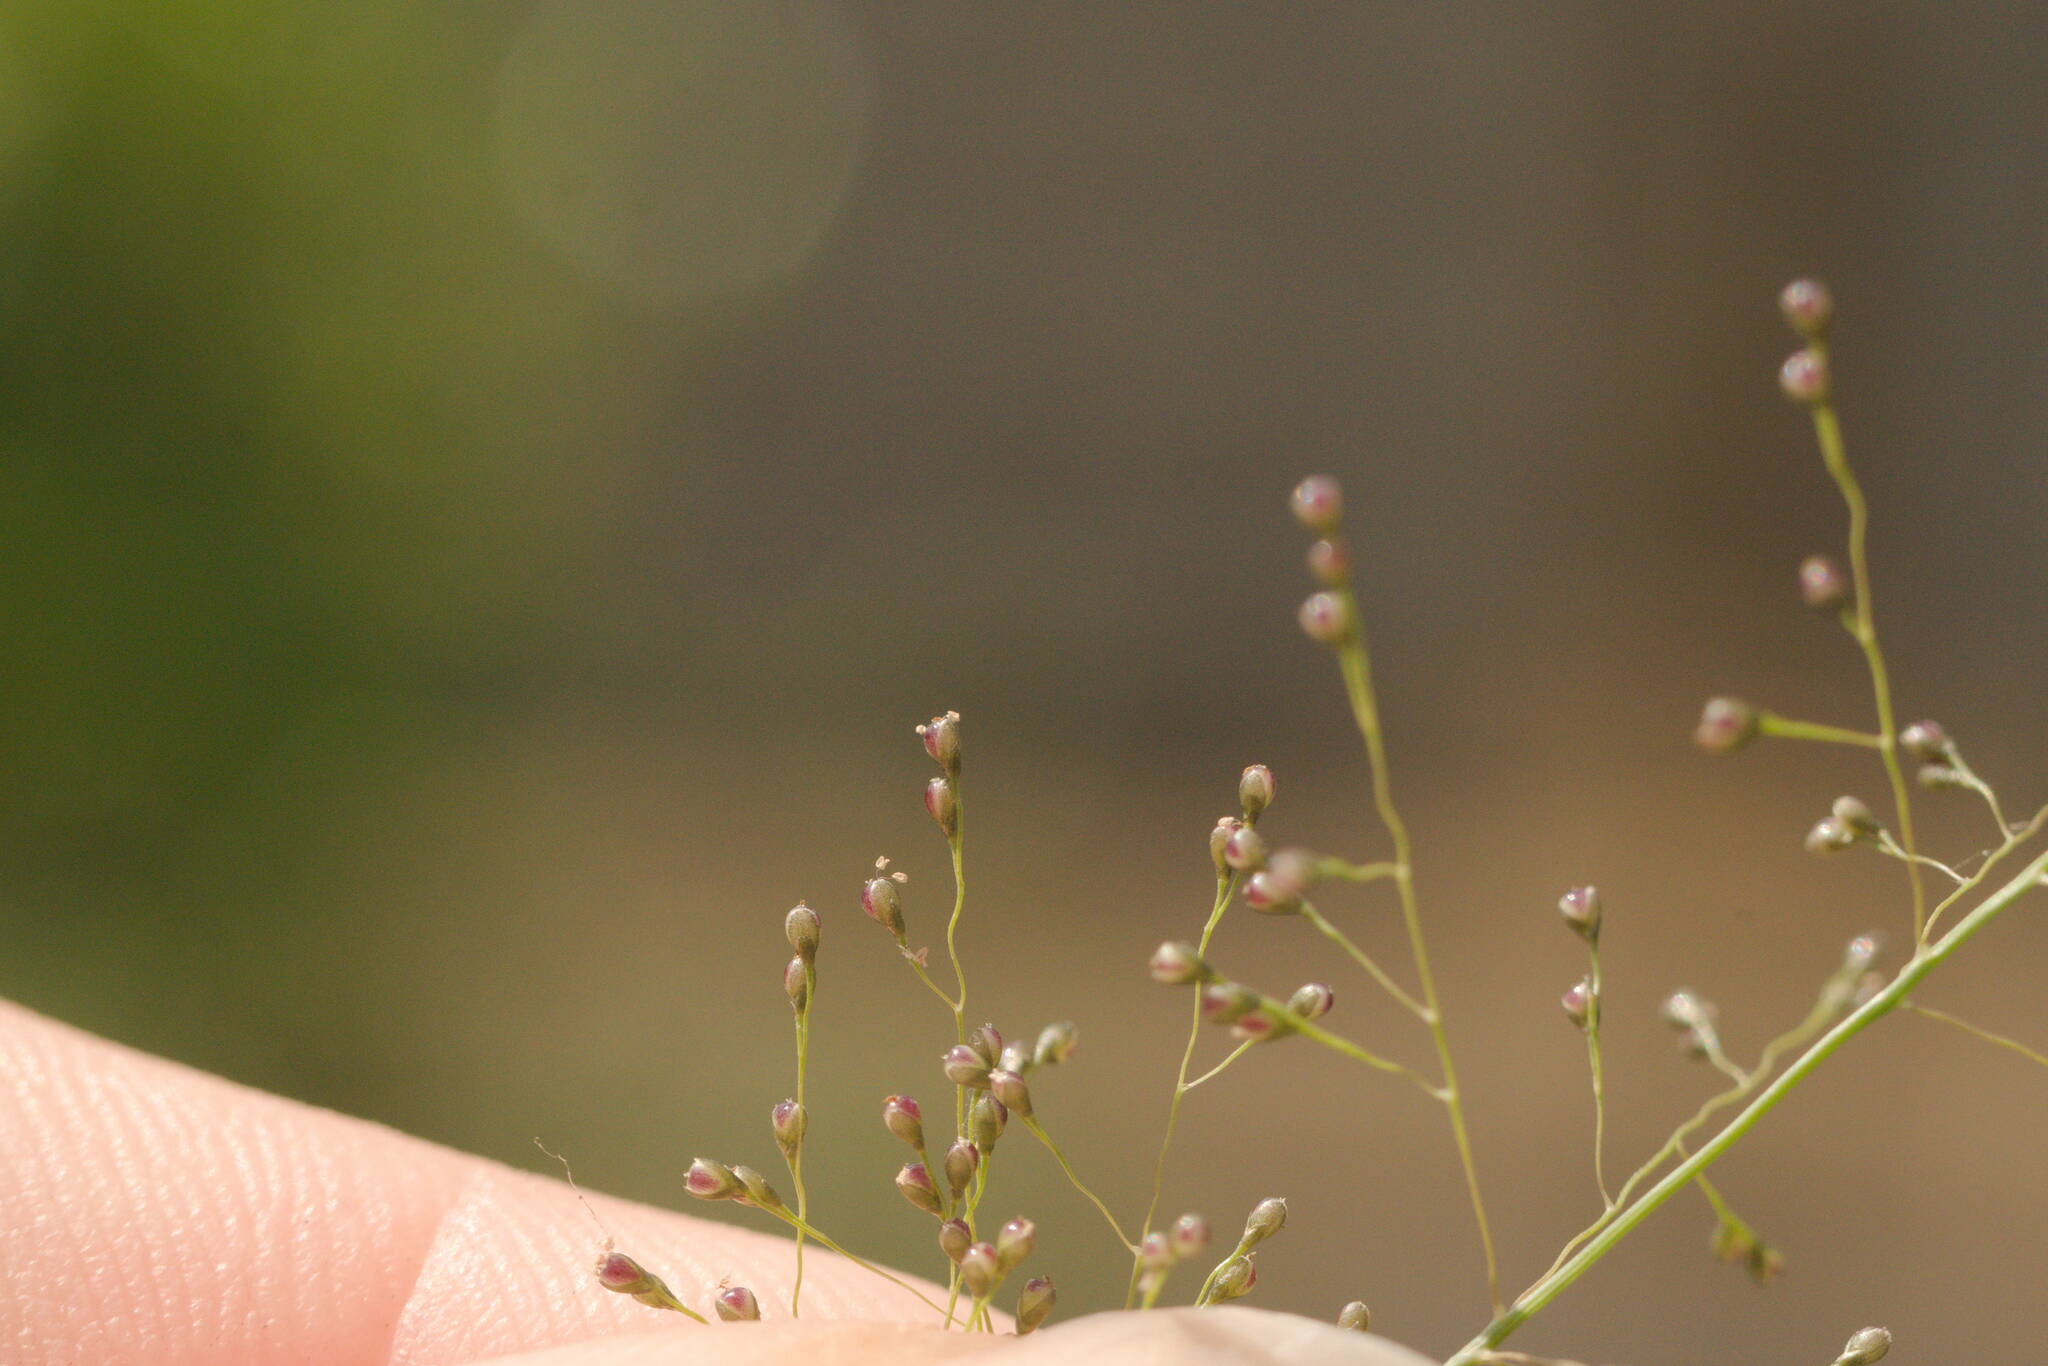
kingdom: Plantae
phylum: Tracheophyta
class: Liliopsida
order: Poales
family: Poaceae
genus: Sporobolus
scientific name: Sporobolus tenuissimus
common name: Tropical dropseed
